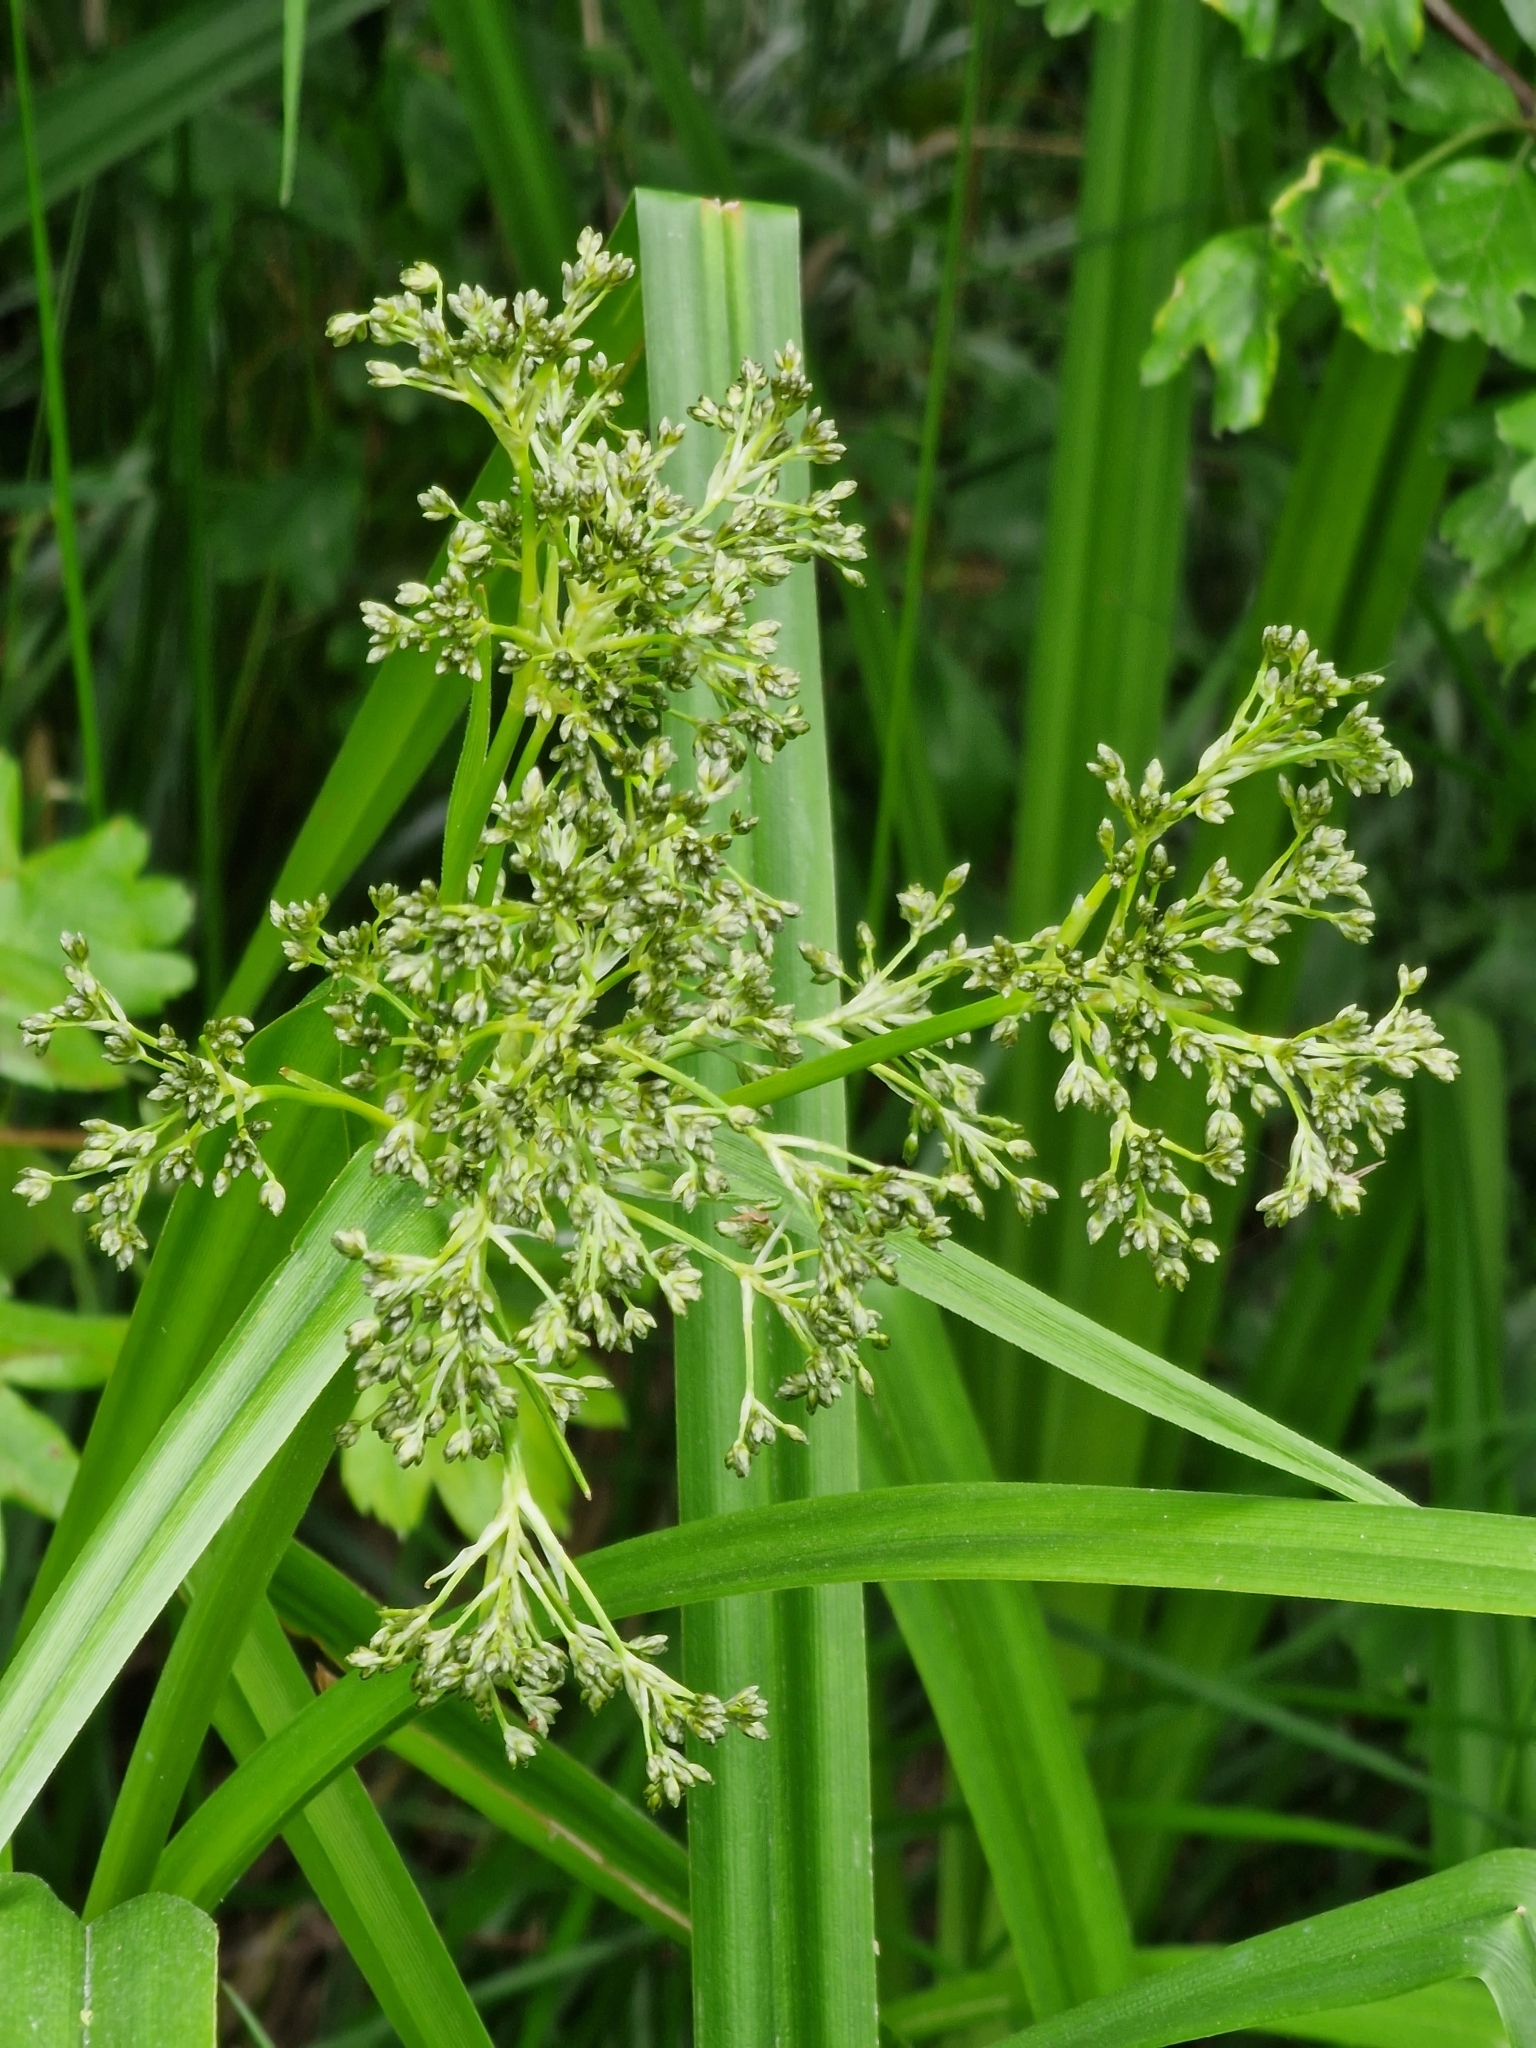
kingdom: Plantae
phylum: Tracheophyta
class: Liliopsida
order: Poales
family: Cyperaceae
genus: Scirpus
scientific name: Scirpus sylvaticus
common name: Wood club-rush
